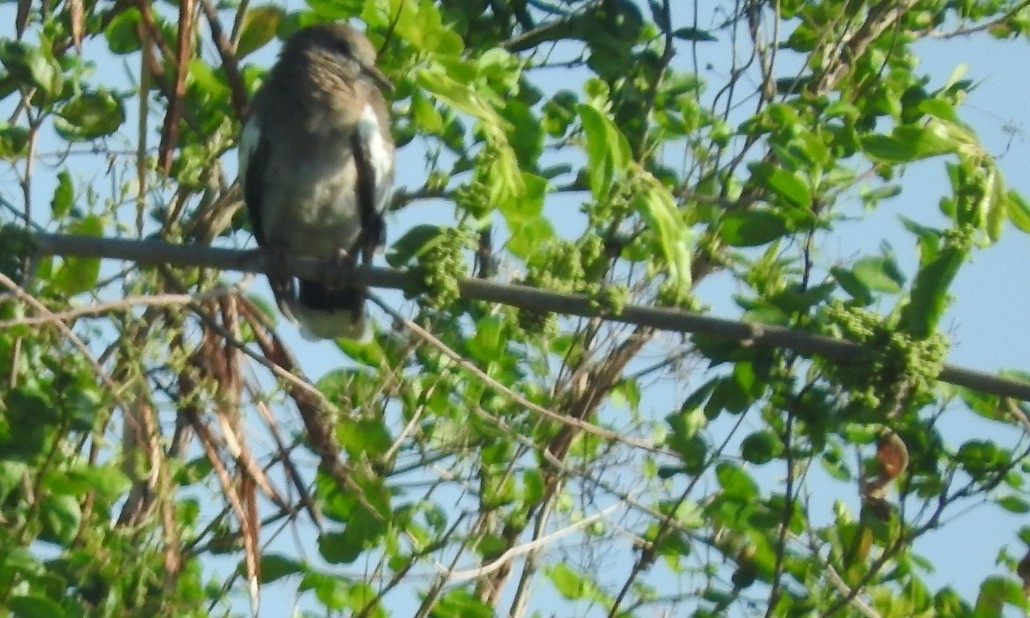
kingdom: Animalia
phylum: Chordata
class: Aves
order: Columbiformes
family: Columbidae
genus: Zenaida
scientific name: Zenaida asiatica
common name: White-winged dove
